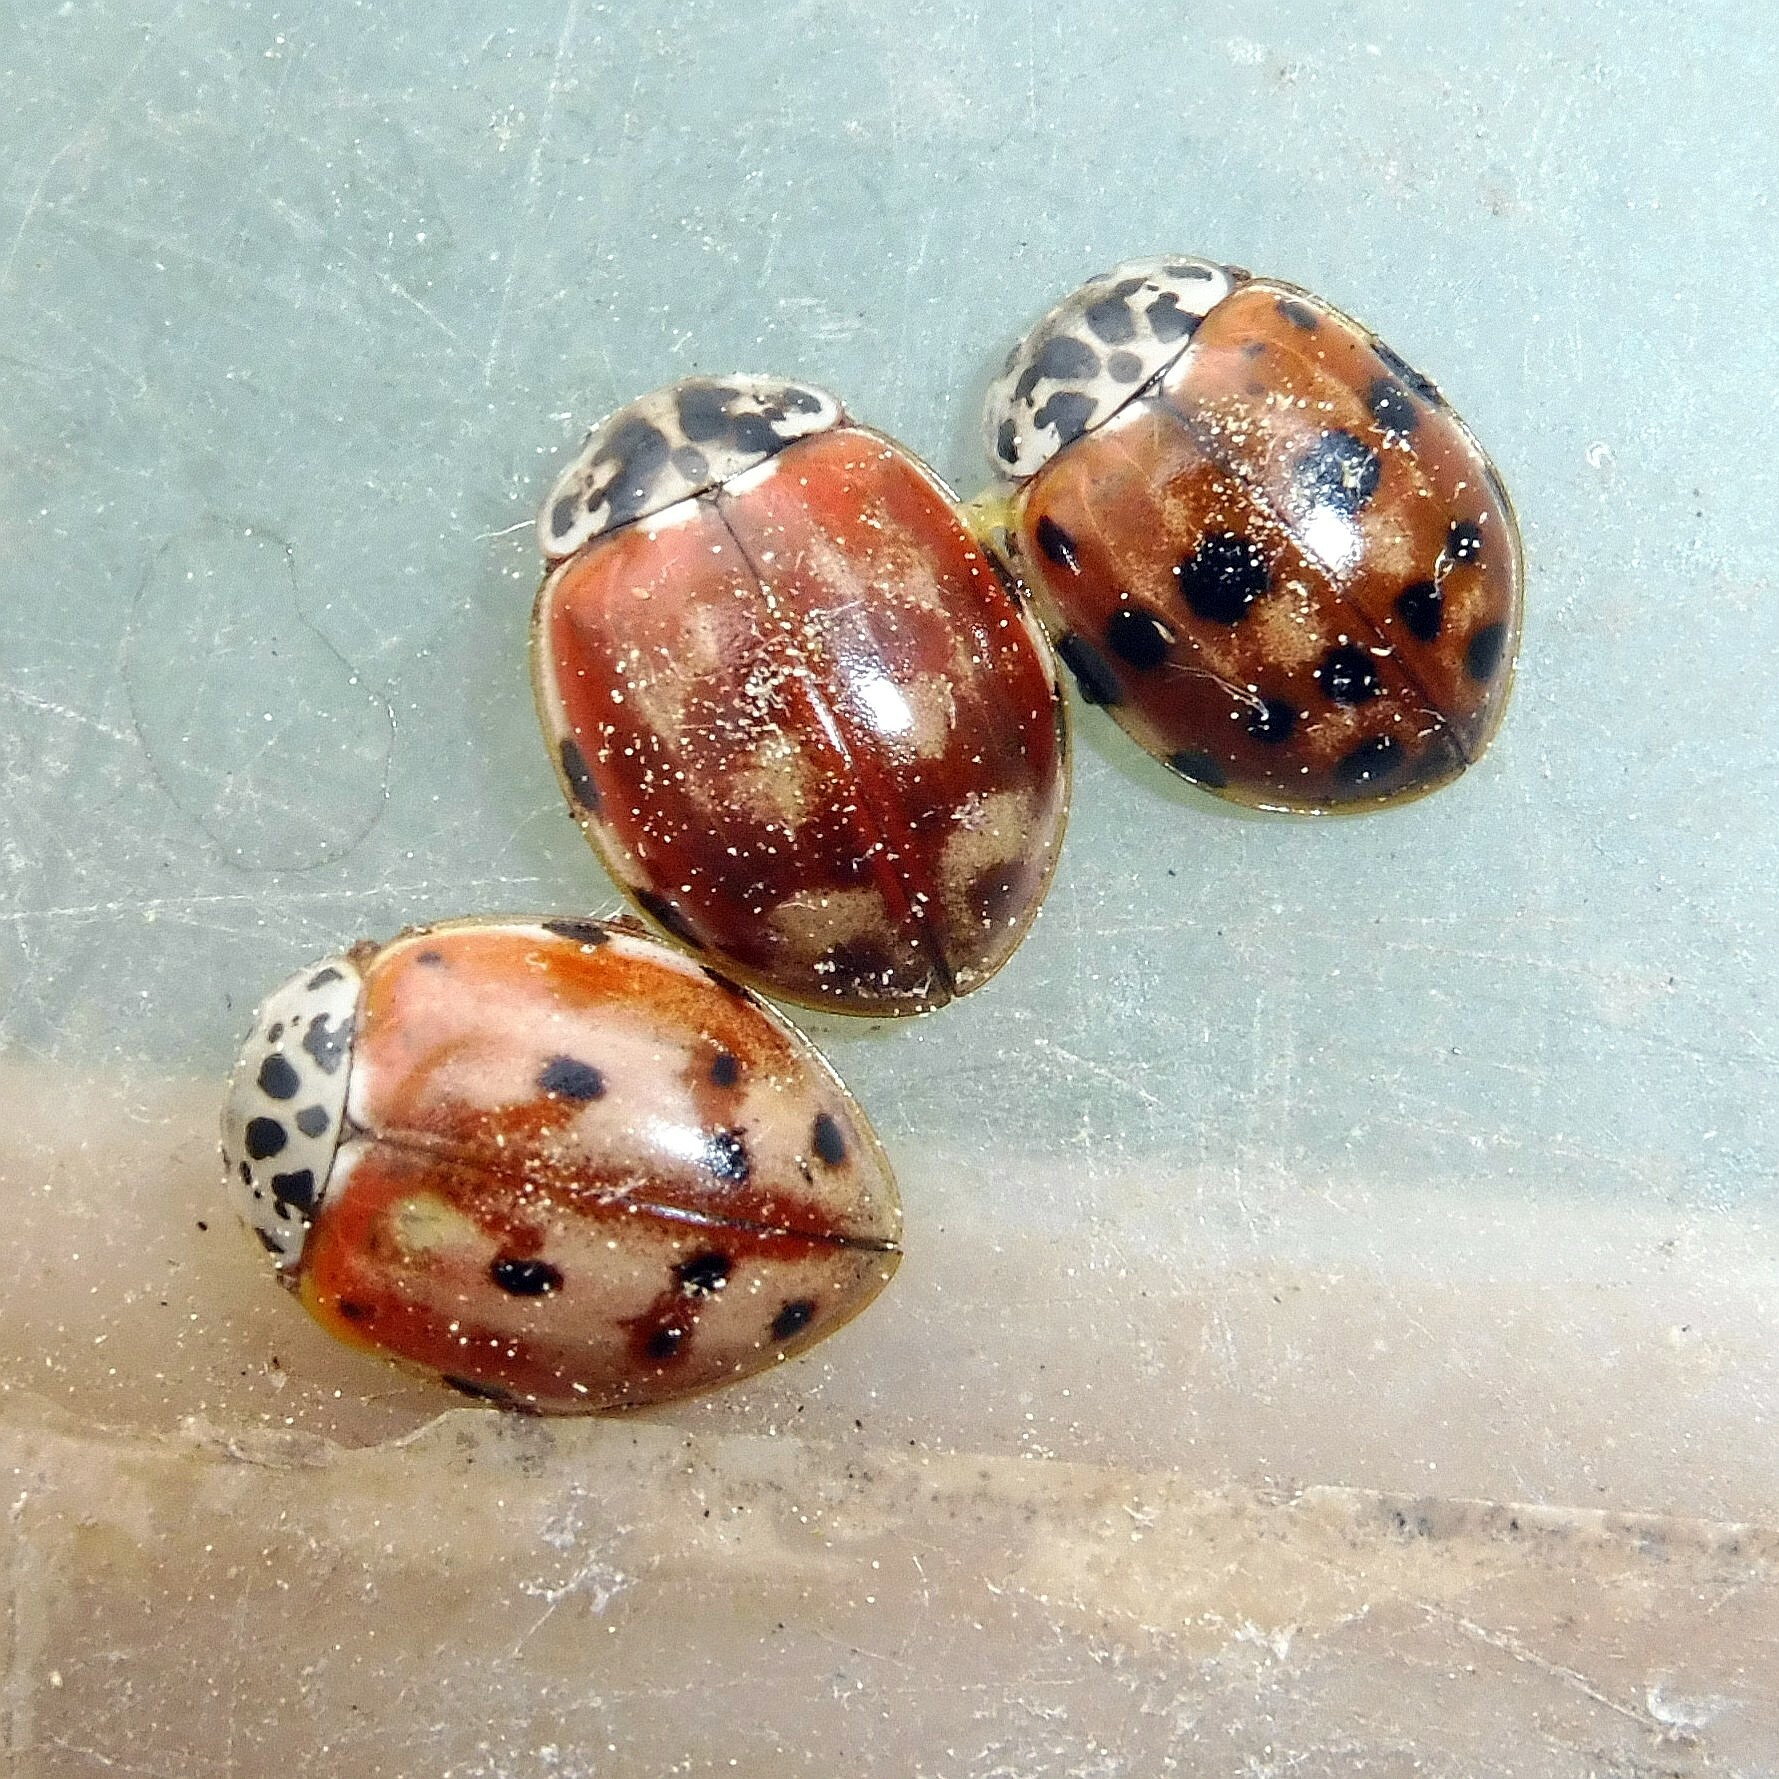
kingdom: Animalia
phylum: Arthropoda
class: Insecta
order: Coleoptera
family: Coccinellidae
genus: Harmonia
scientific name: Harmonia quadripunctata
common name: Cream-streaked ladybird
